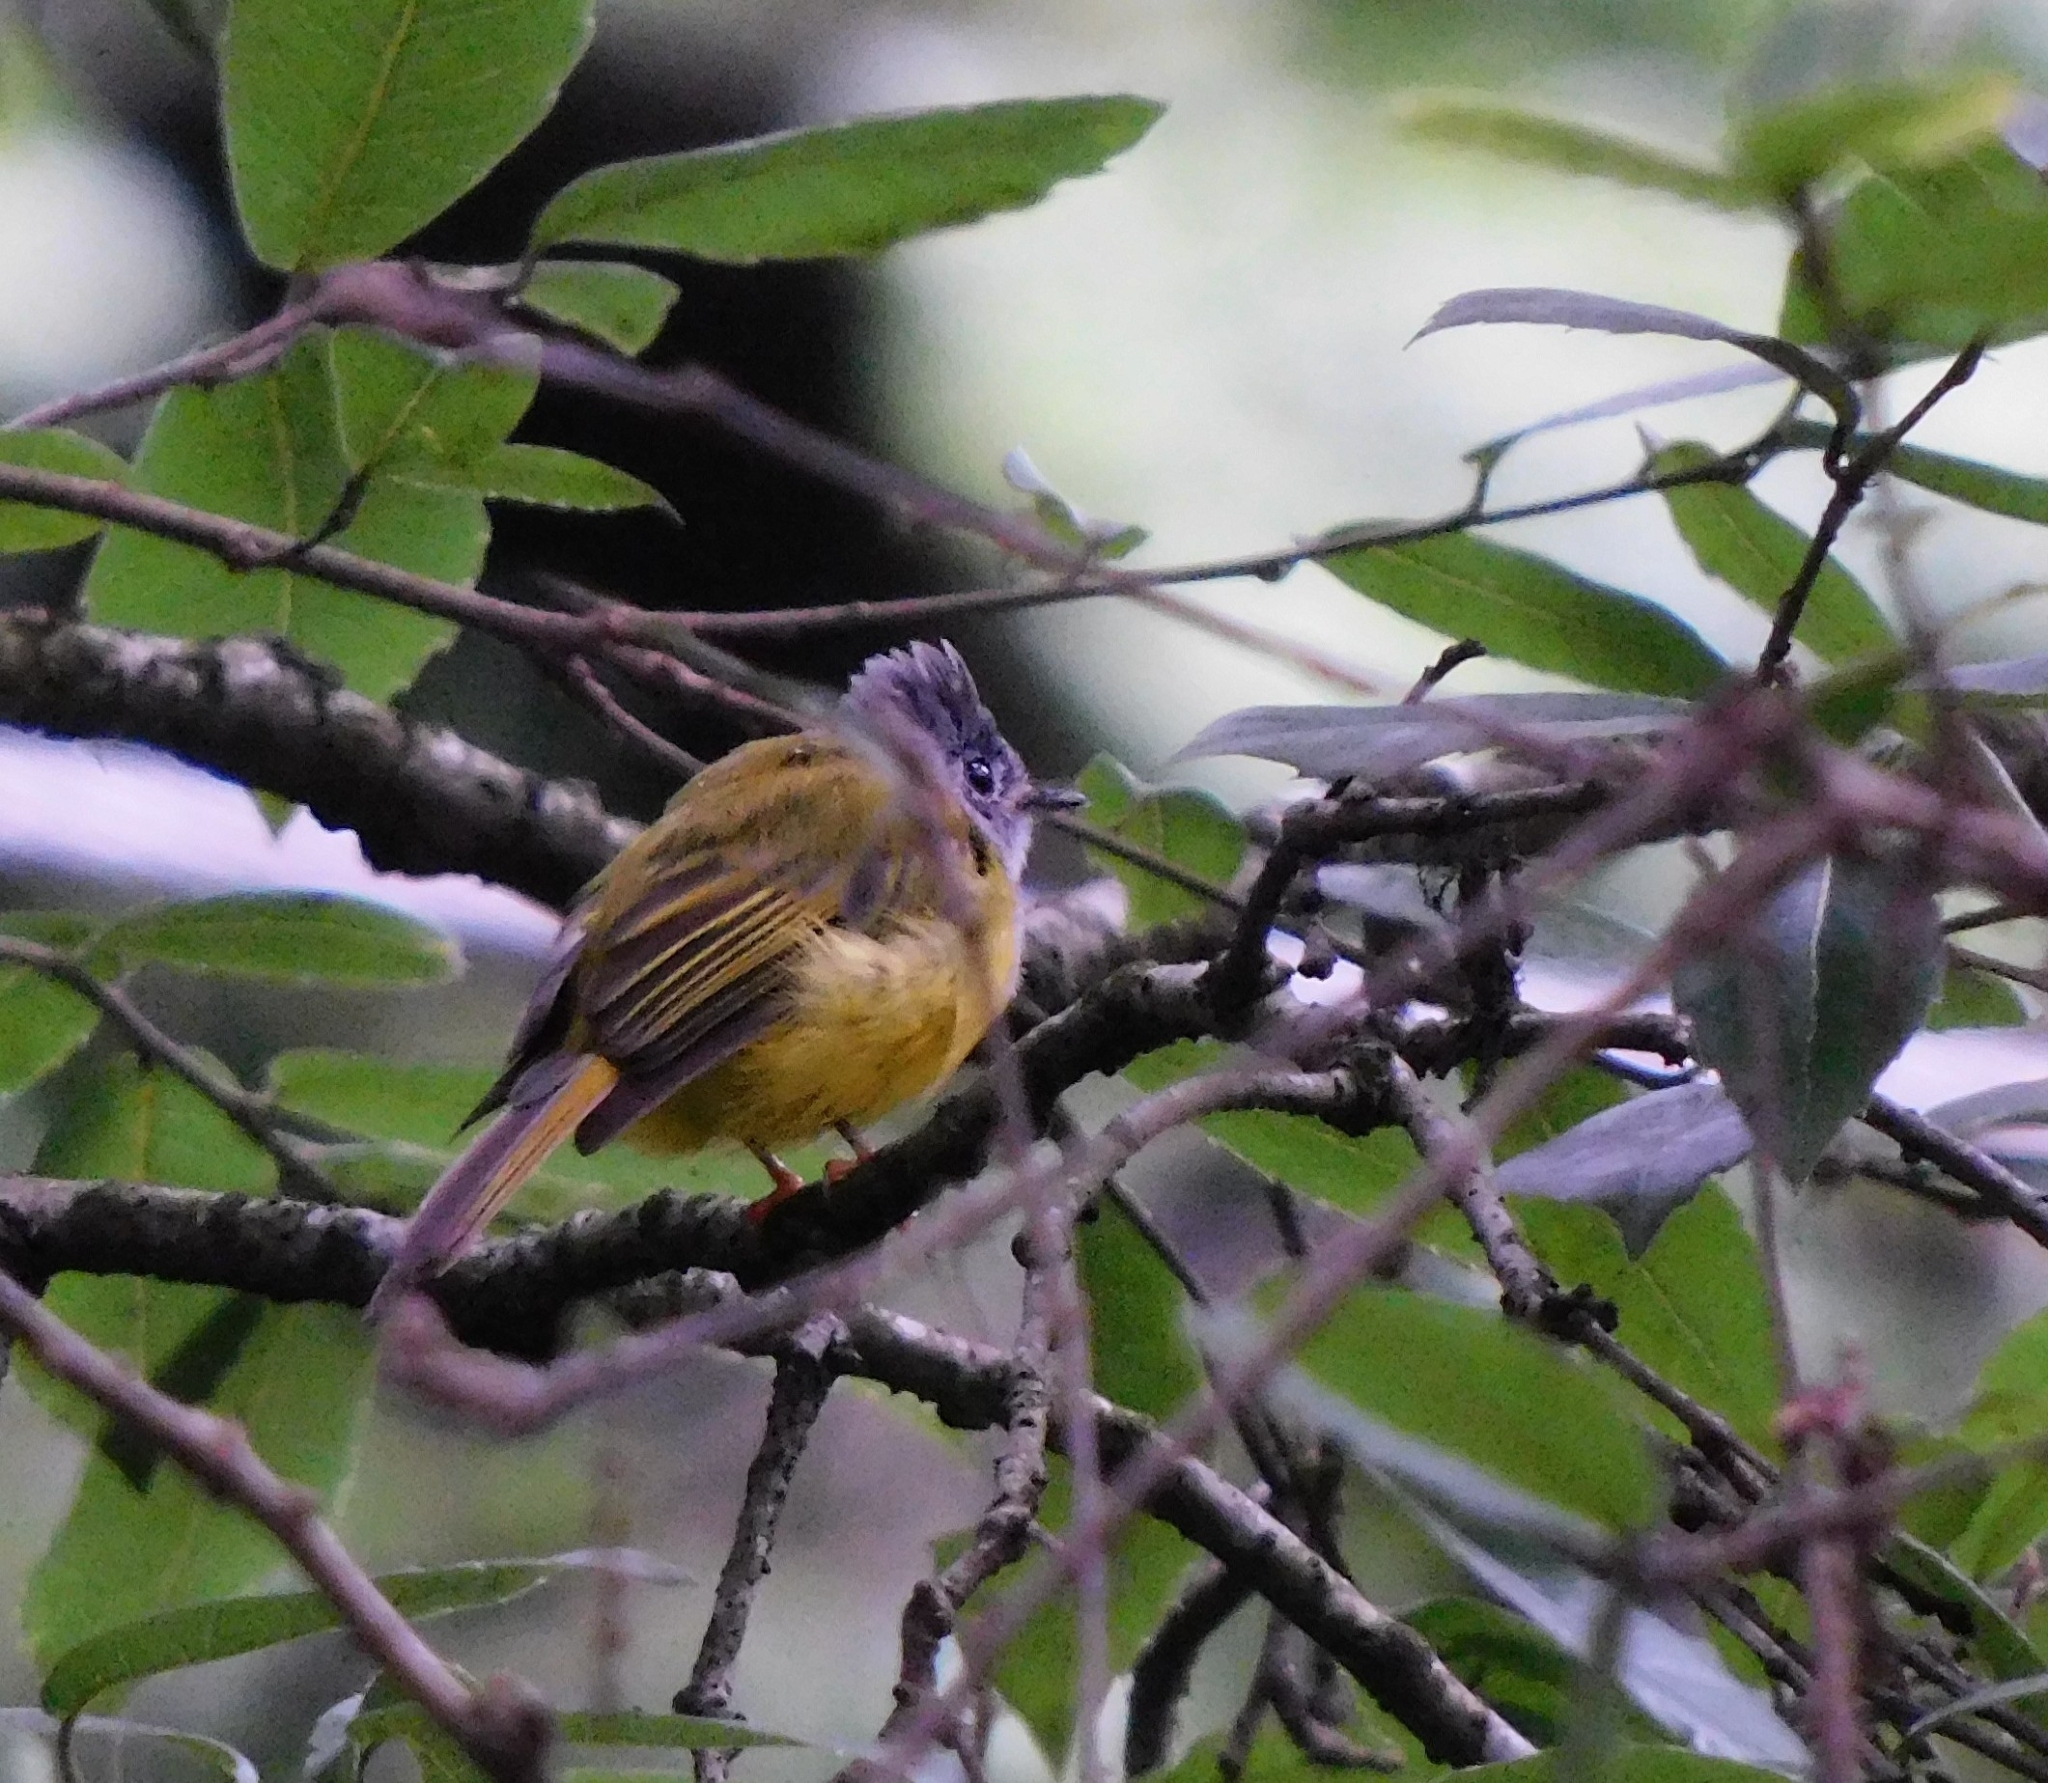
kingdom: Animalia
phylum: Chordata
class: Aves
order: Passeriformes
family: Stenostiridae
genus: Culicicapa
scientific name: Culicicapa ceylonensis
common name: Grey-headed canary-flycatcher
